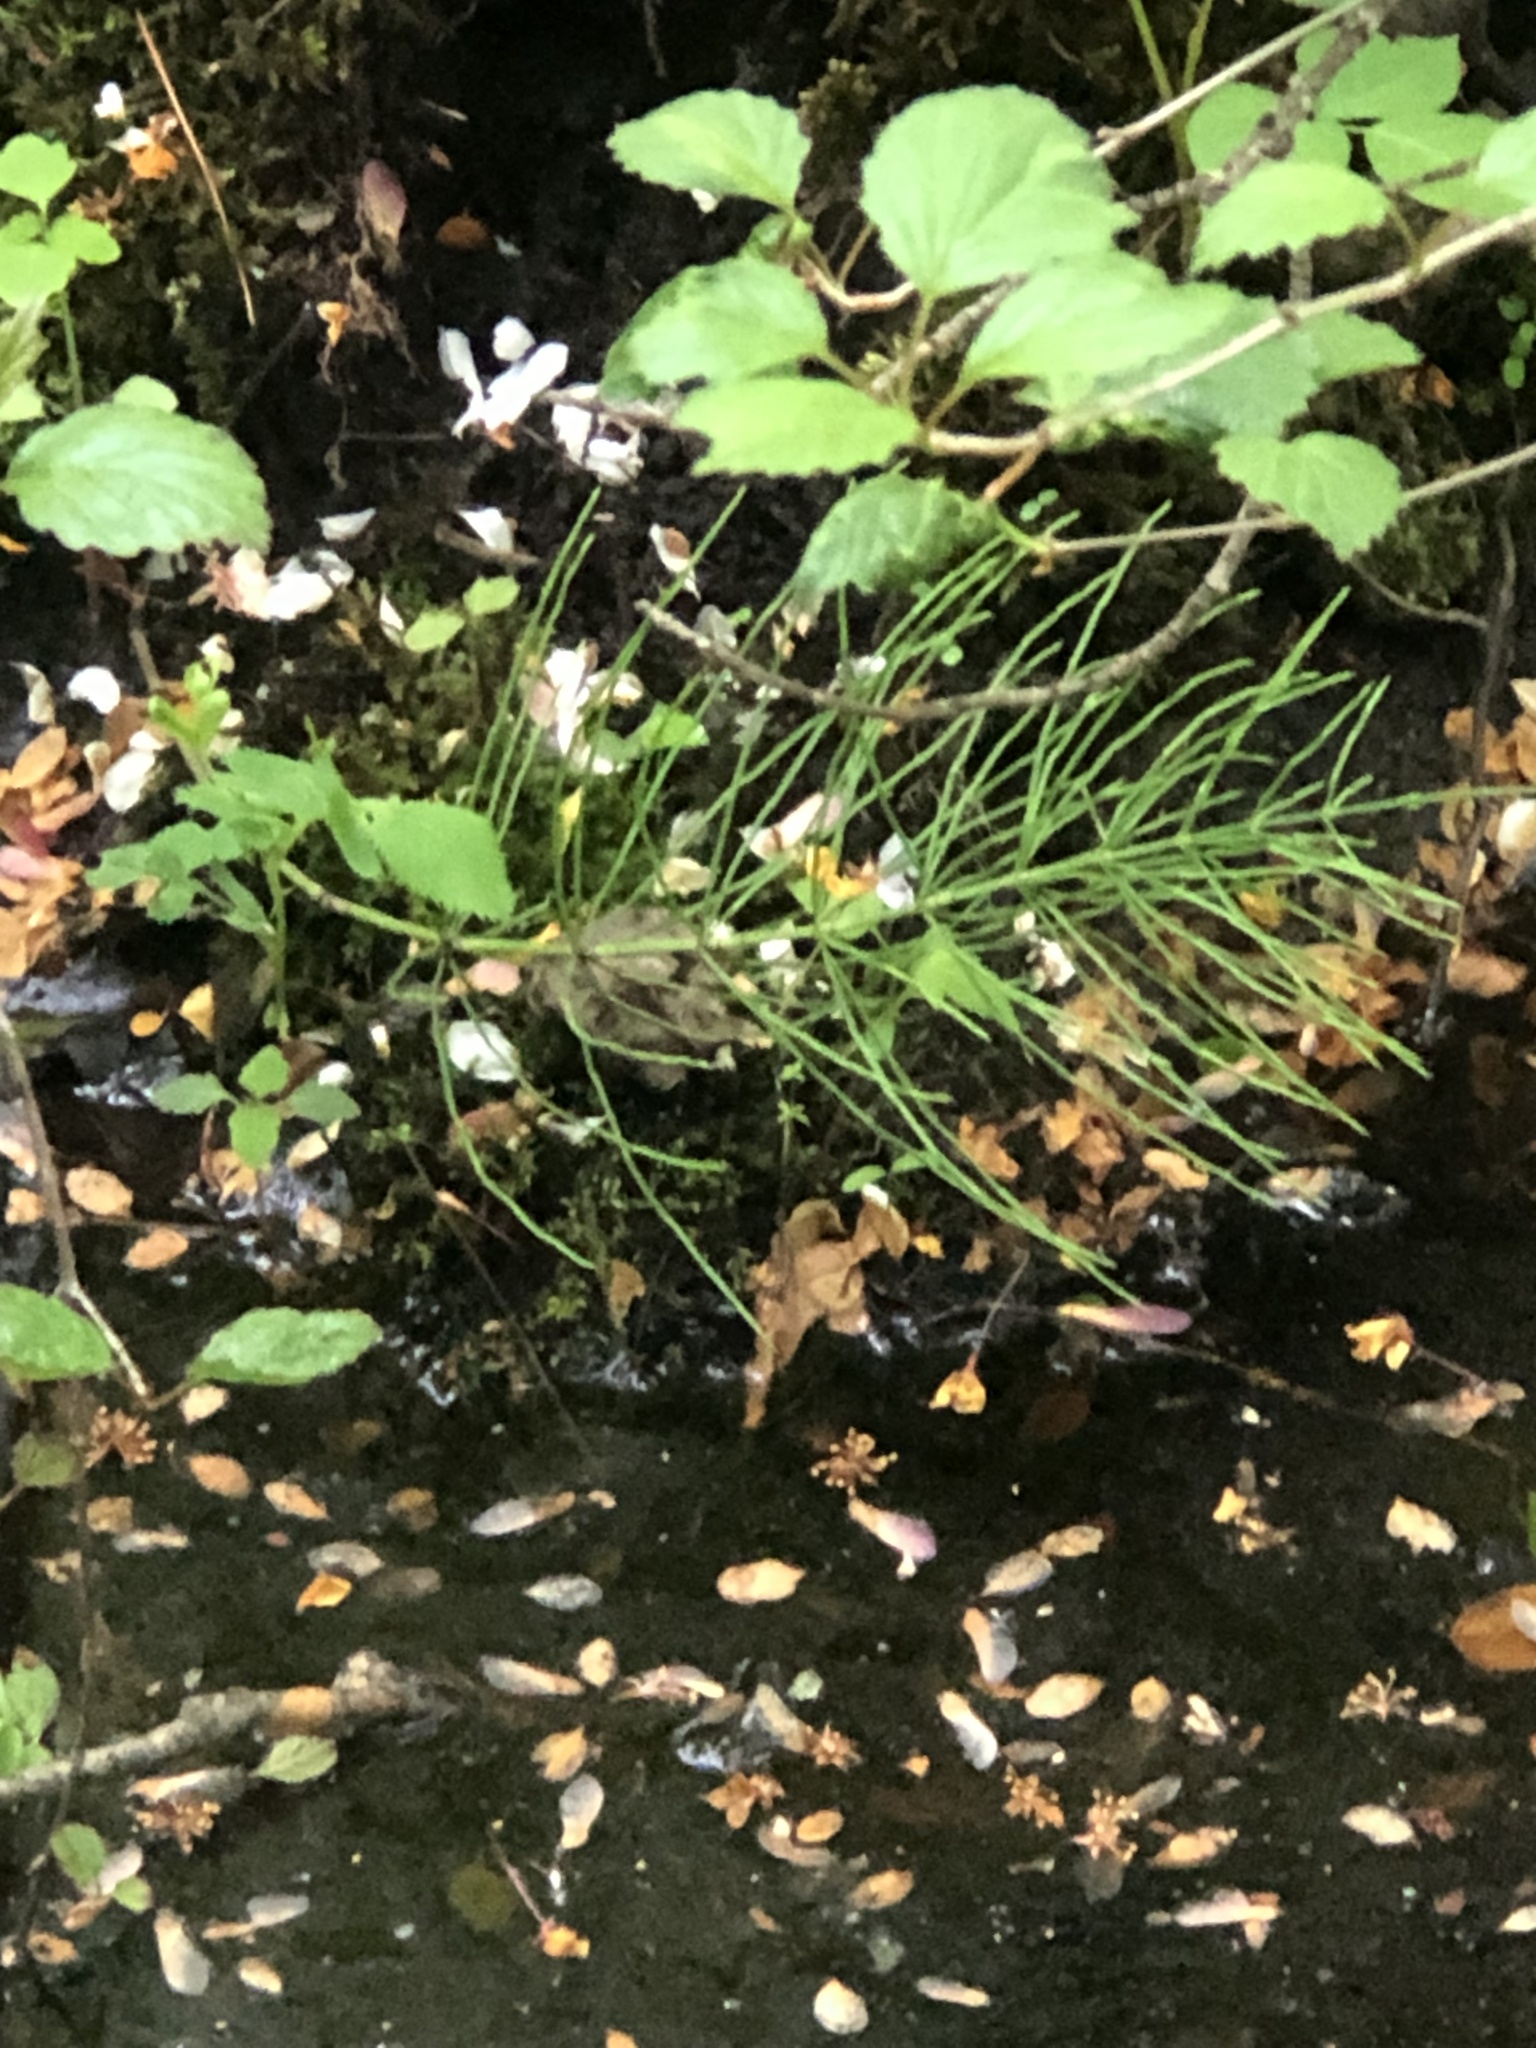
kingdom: Plantae
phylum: Tracheophyta
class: Polypodiopsida
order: Equisetales
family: Equisetaceae
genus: Equisetum
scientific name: Equisetum arvense
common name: Field horsetail
